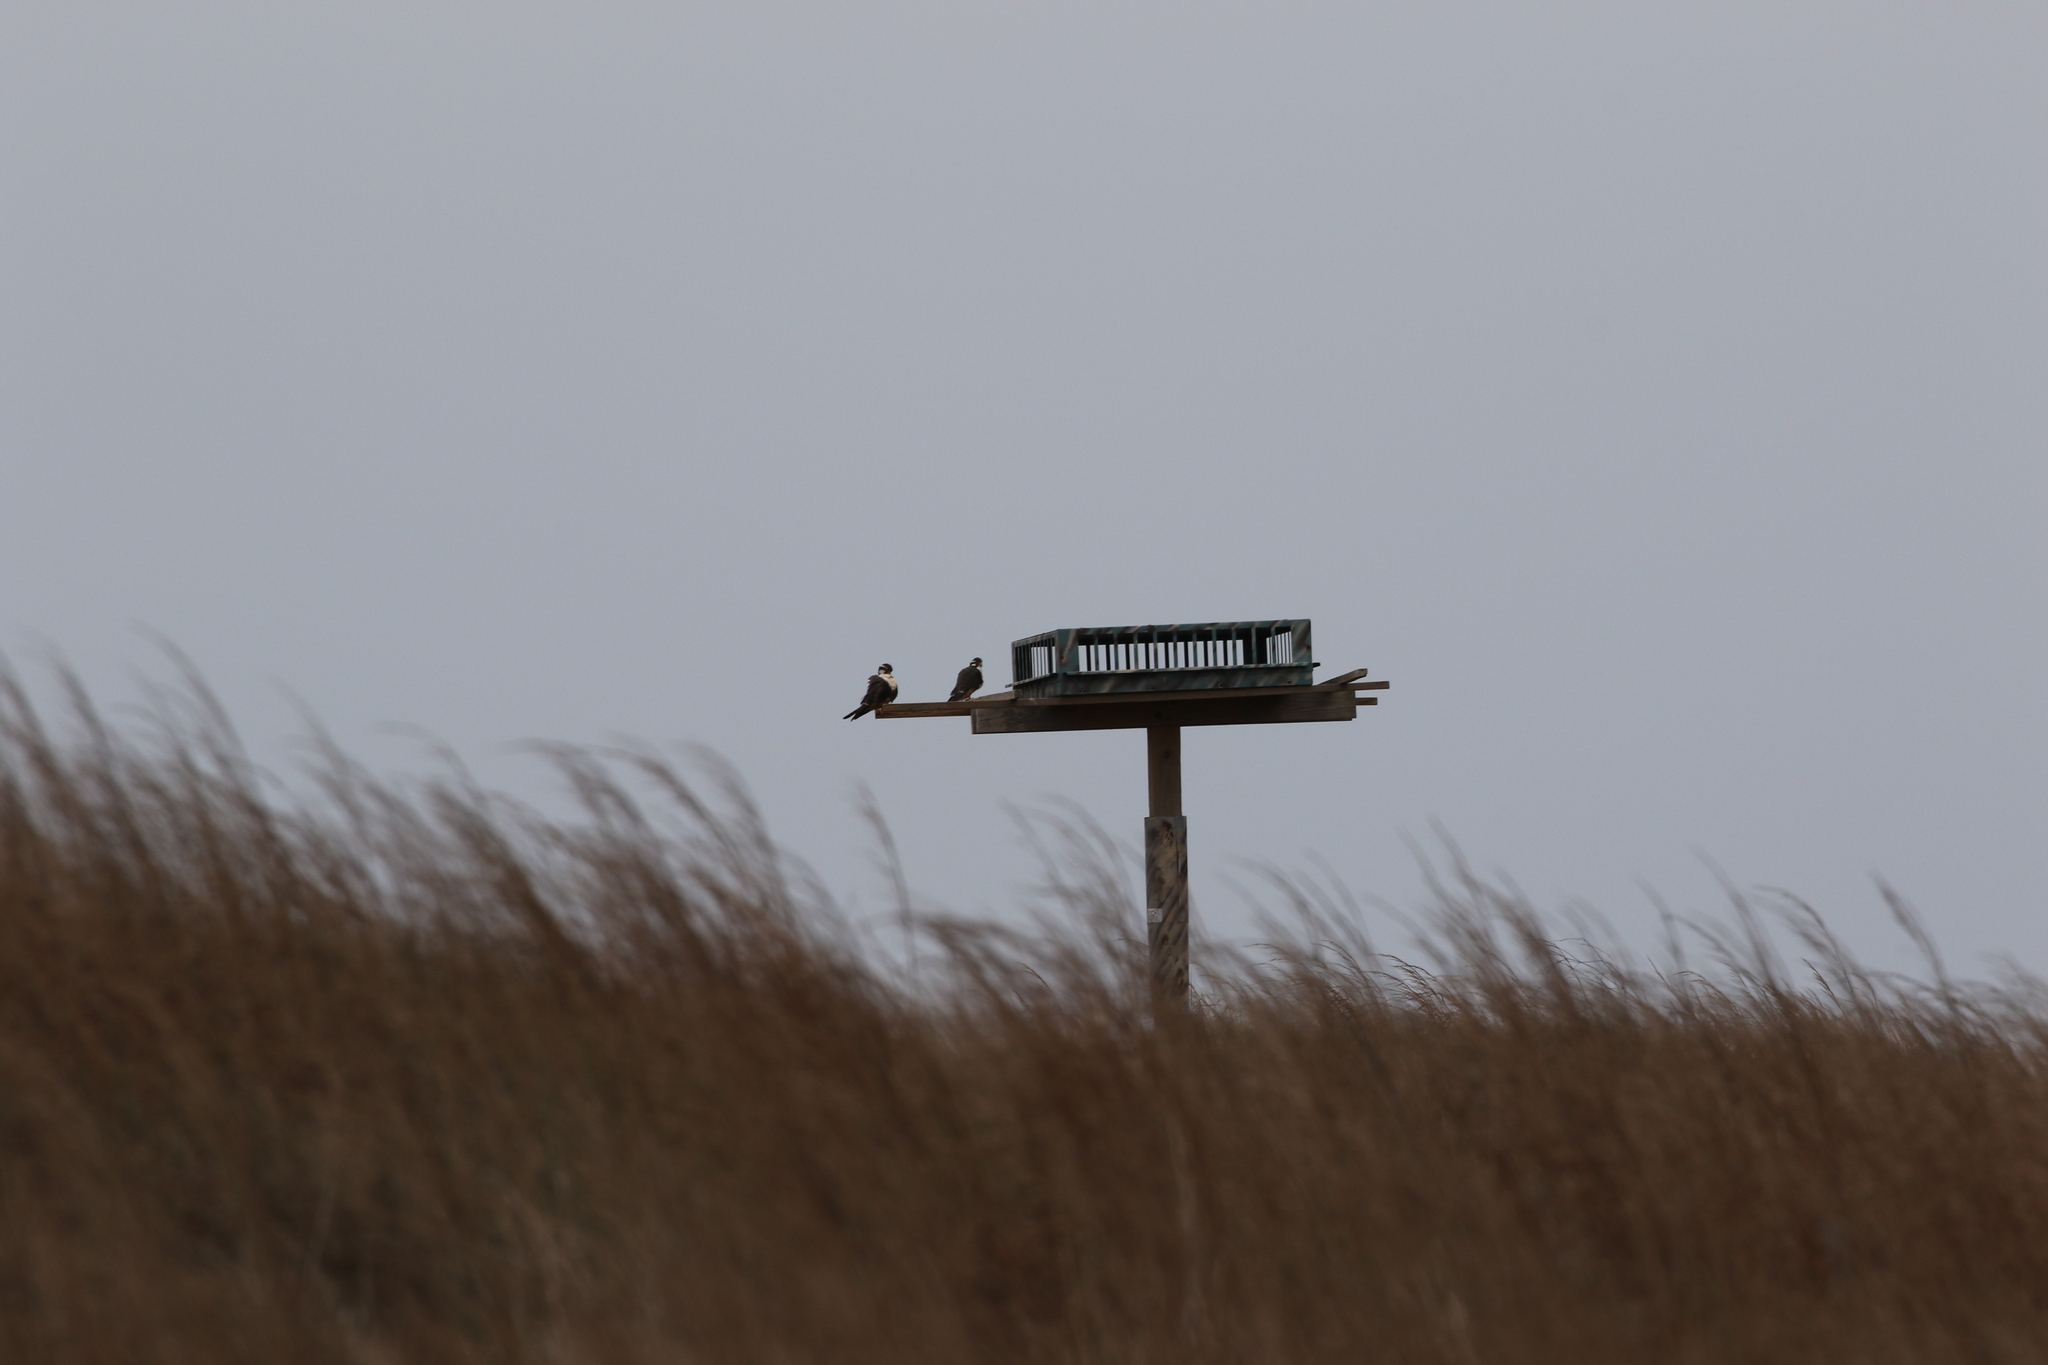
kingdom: Animalia
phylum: Chordata
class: Aves
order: Falconiformes
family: Falconidae
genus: Falco
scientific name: Falco femoralis
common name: Aplomado falcon
